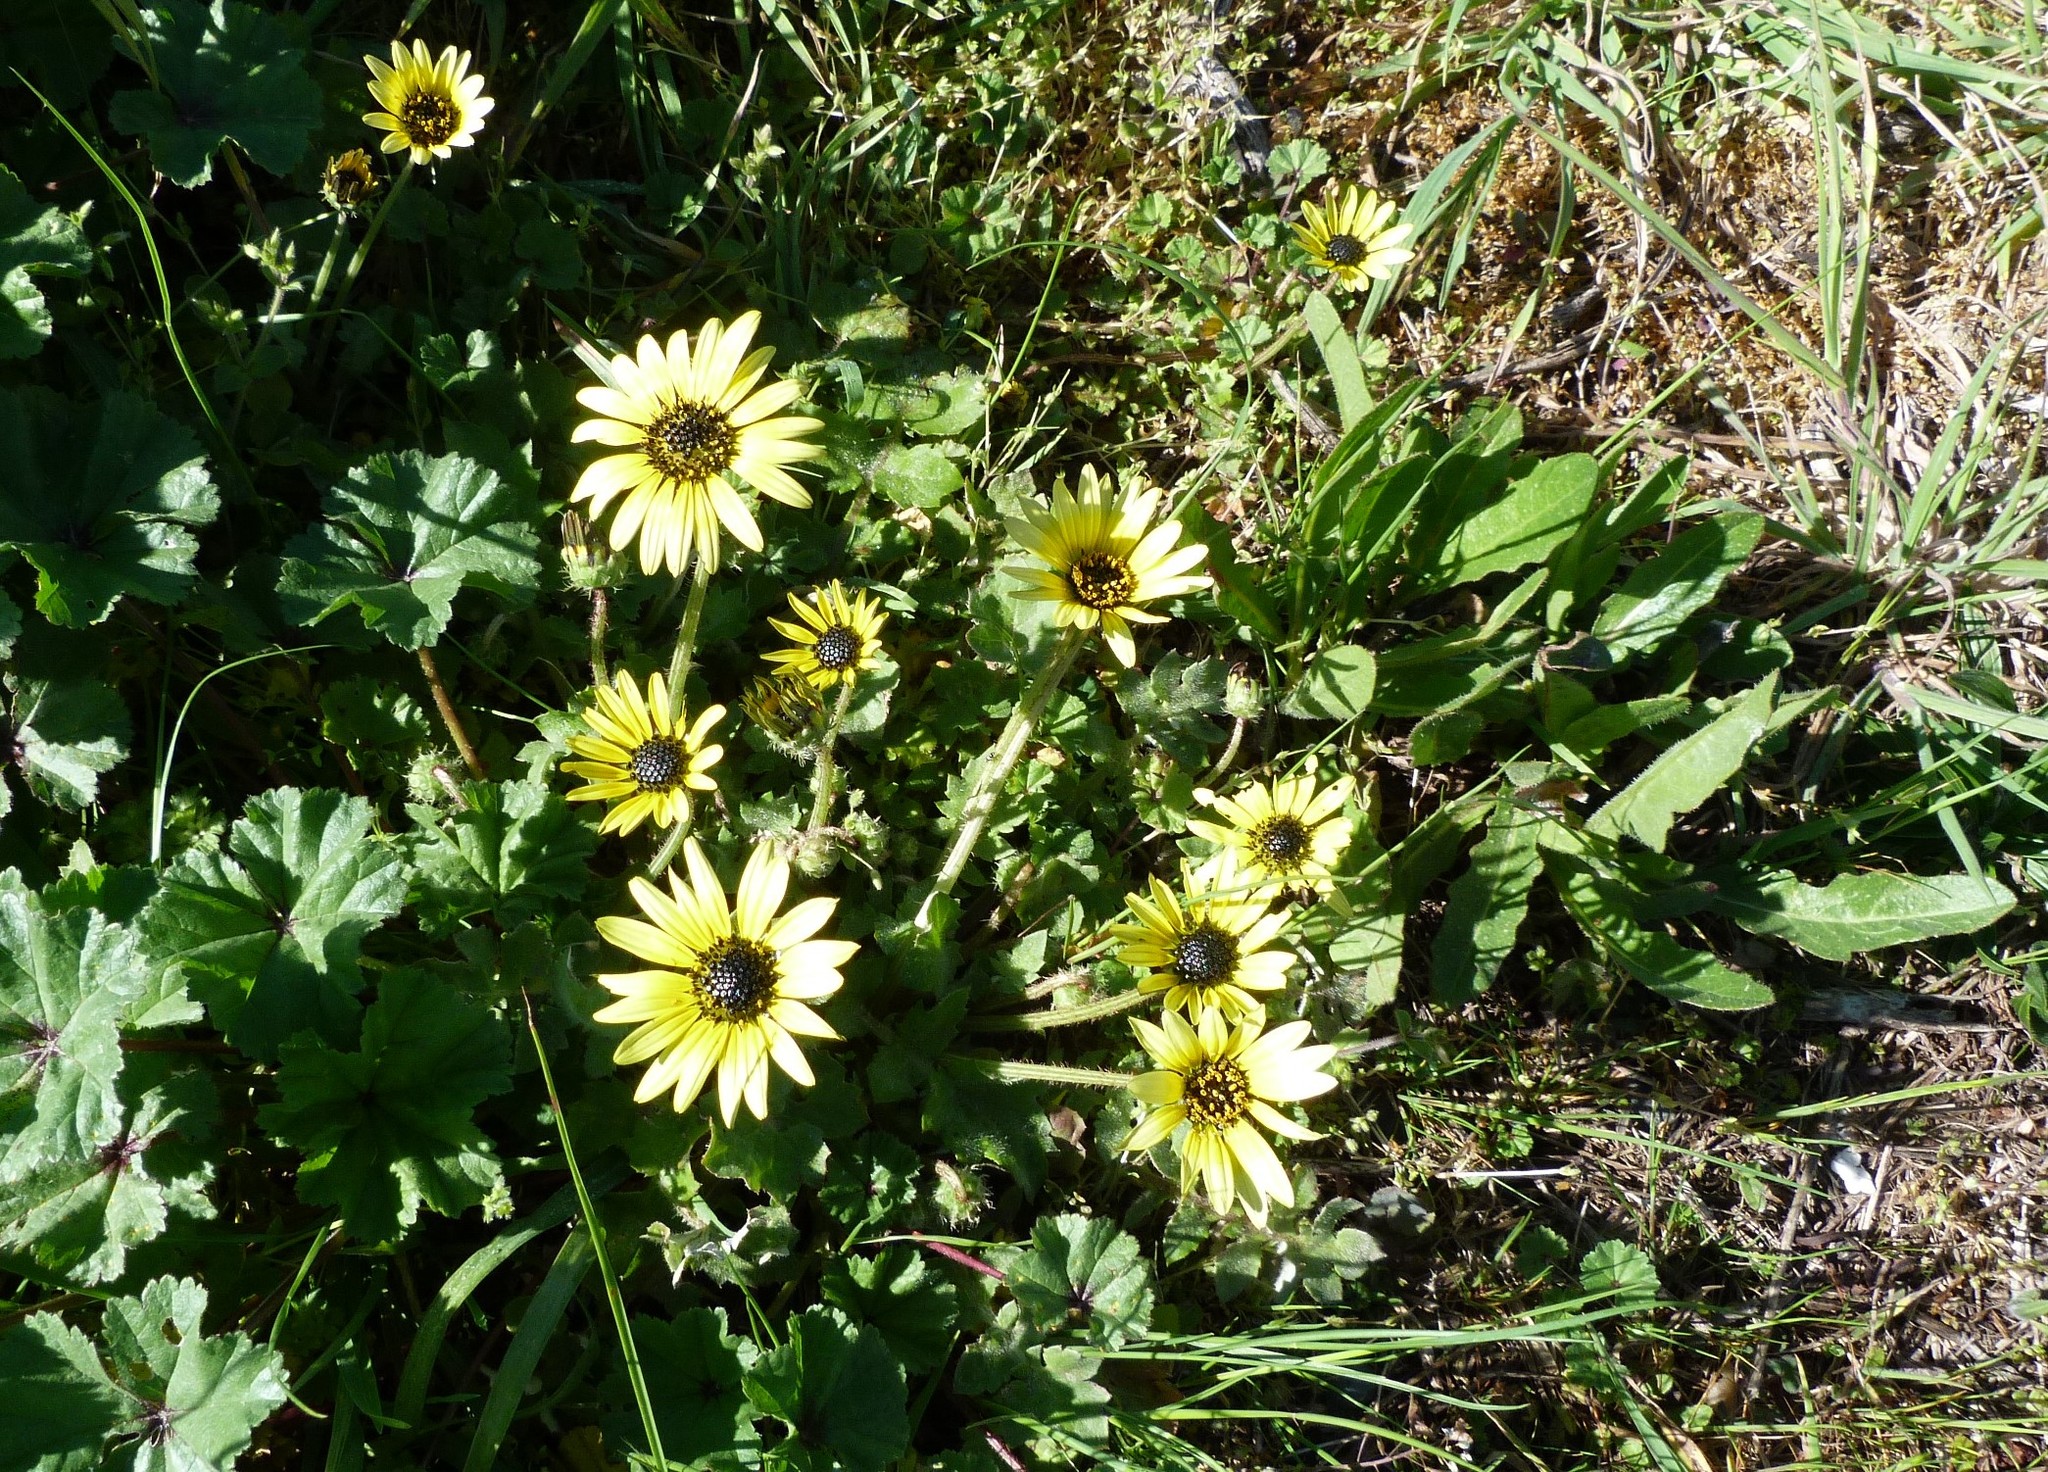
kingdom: Plantae
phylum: Tracheophyta
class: Magnoliopsida
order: Asterales
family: Asteraceae
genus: Arctotheca
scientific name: Arctotheca calendula
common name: Capeweed
